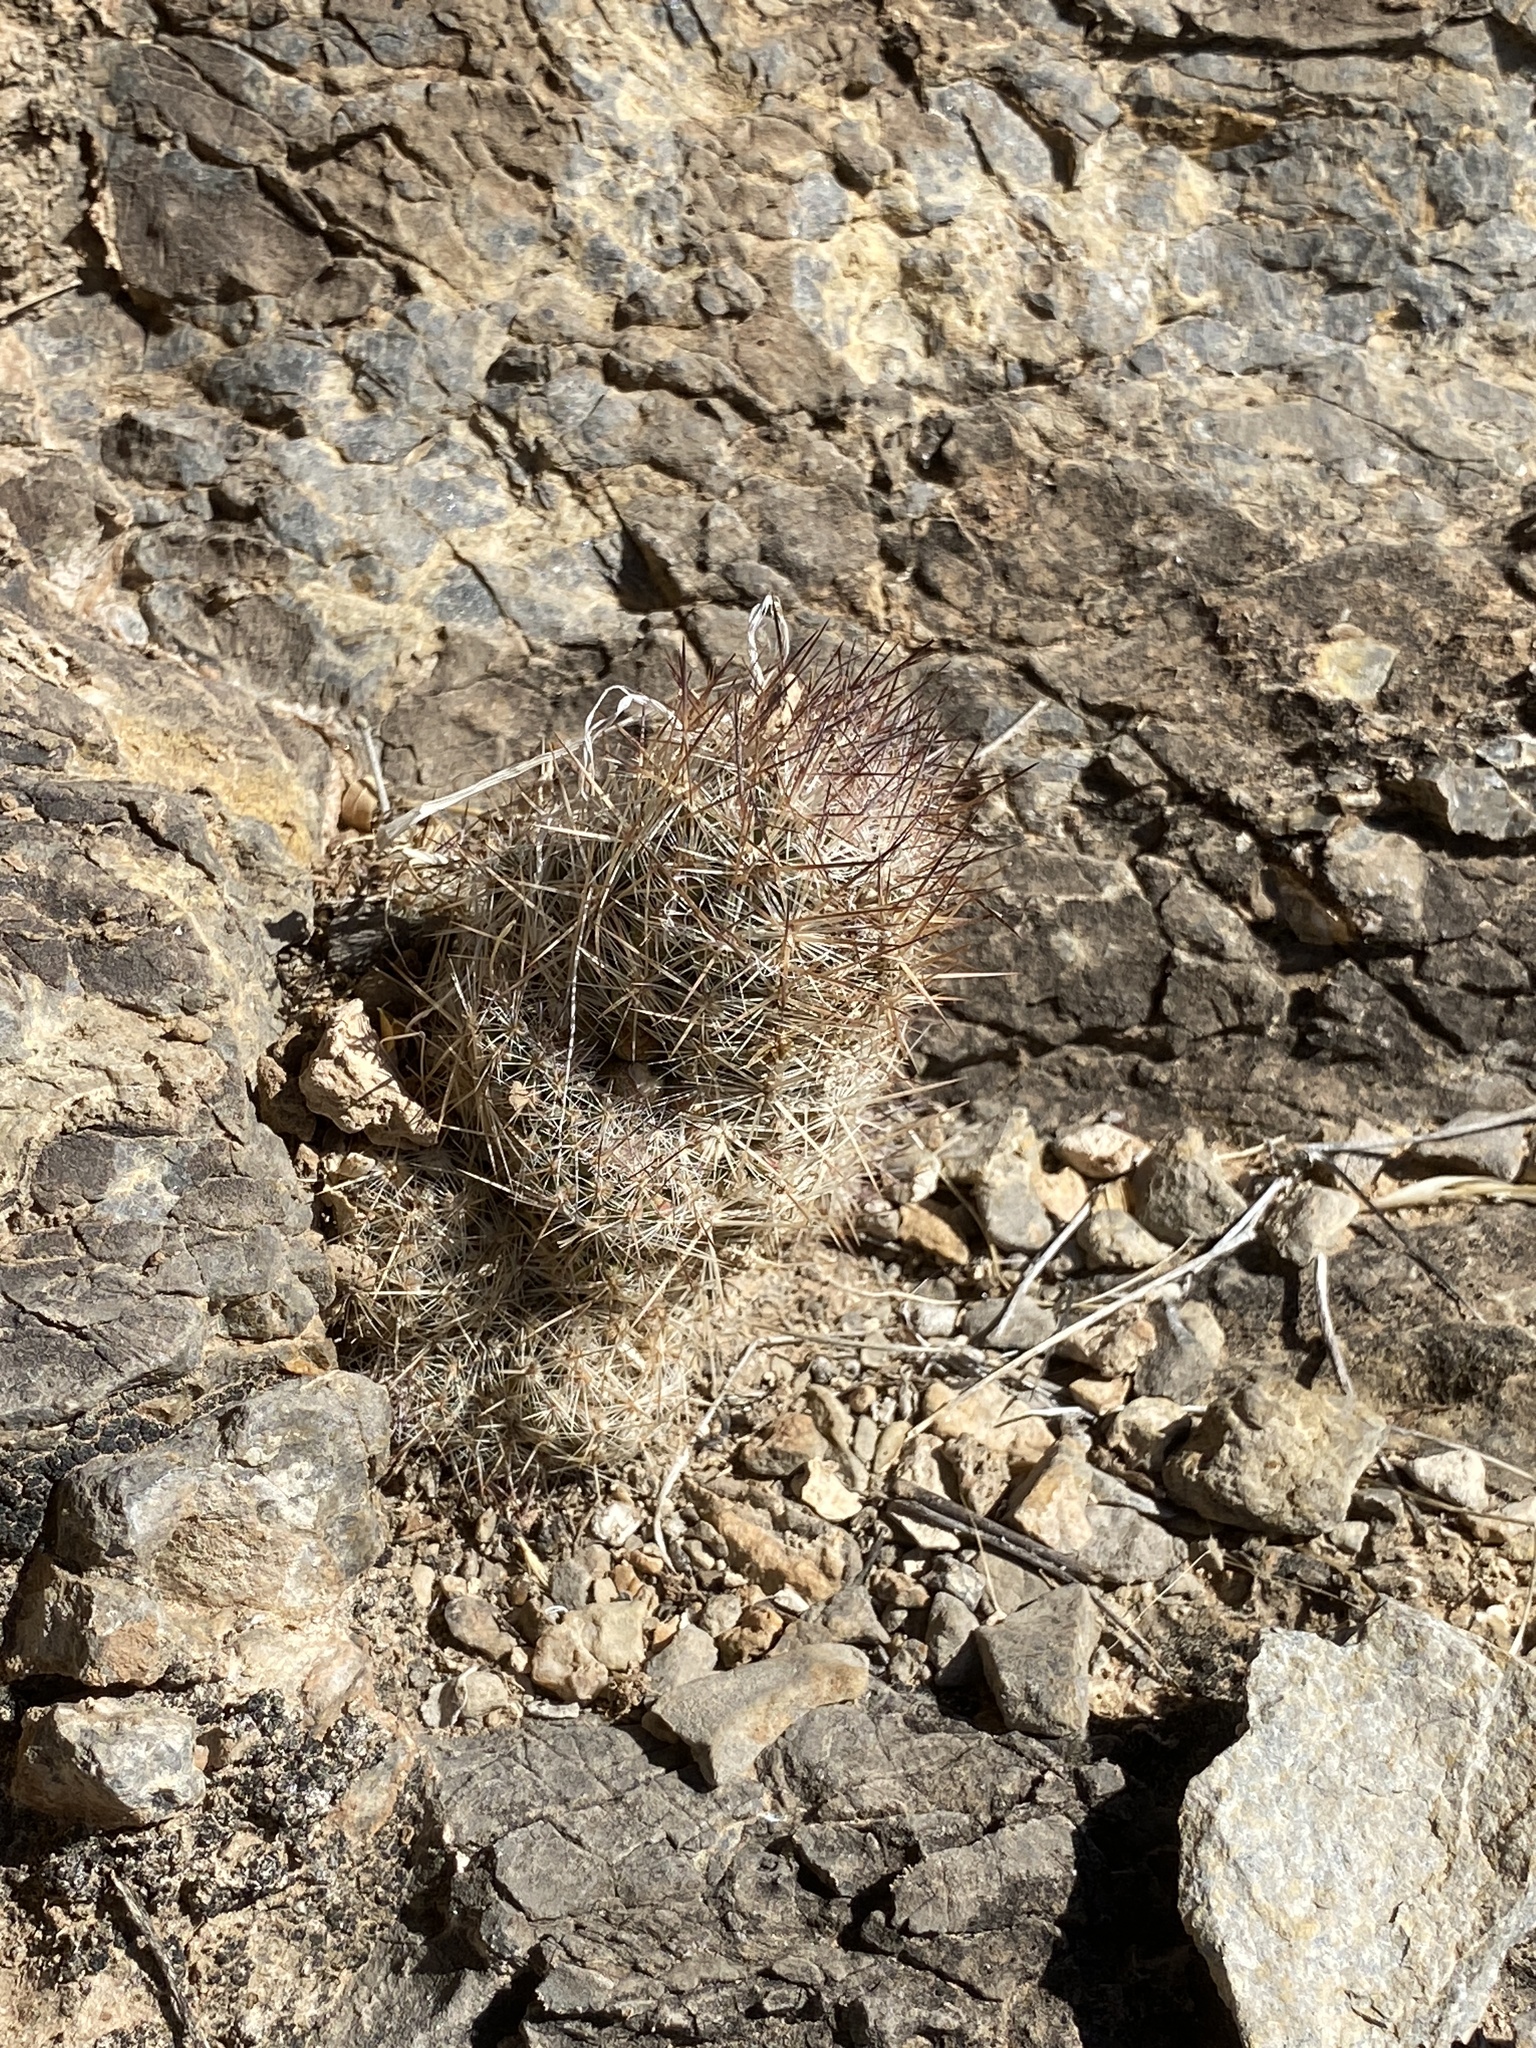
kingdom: Plantae
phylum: Tracheophyta
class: Magnoliopsida
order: Caryophyllales
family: Cactaceae
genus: Pelecyphora
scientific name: Pelecyphora tuberculosa
